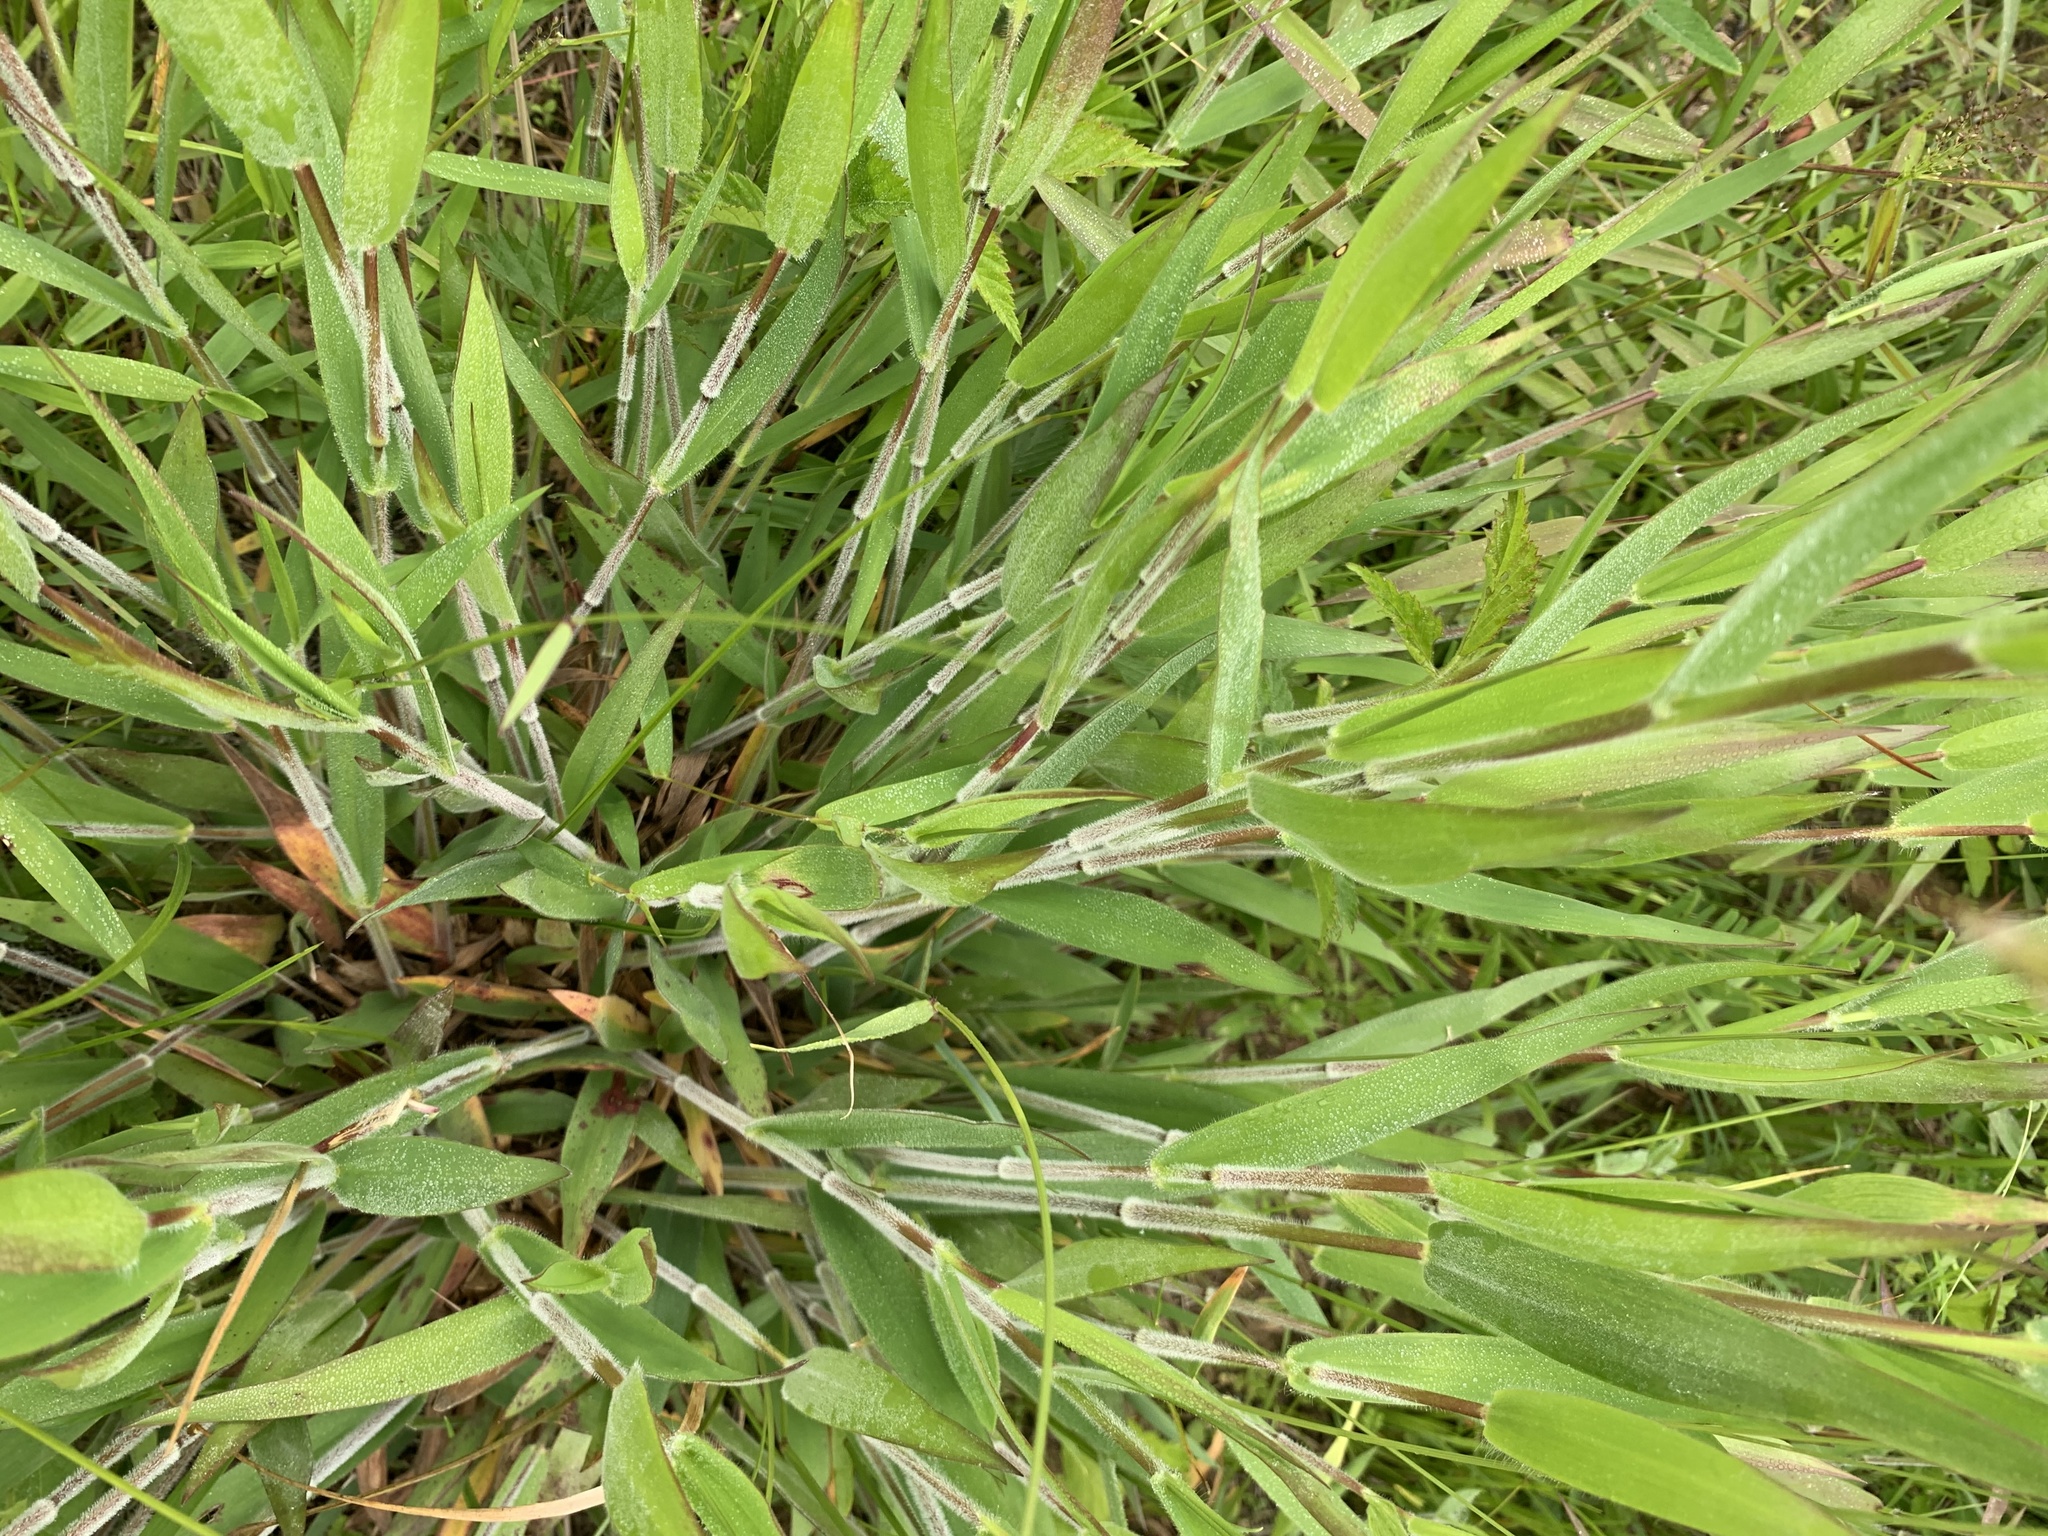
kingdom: Plantae
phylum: Tracheophyta
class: Liliopsida
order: Poales
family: Poaceae
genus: Dichanthelium
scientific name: Dichanthelium scoparium
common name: Velvety panic grass
